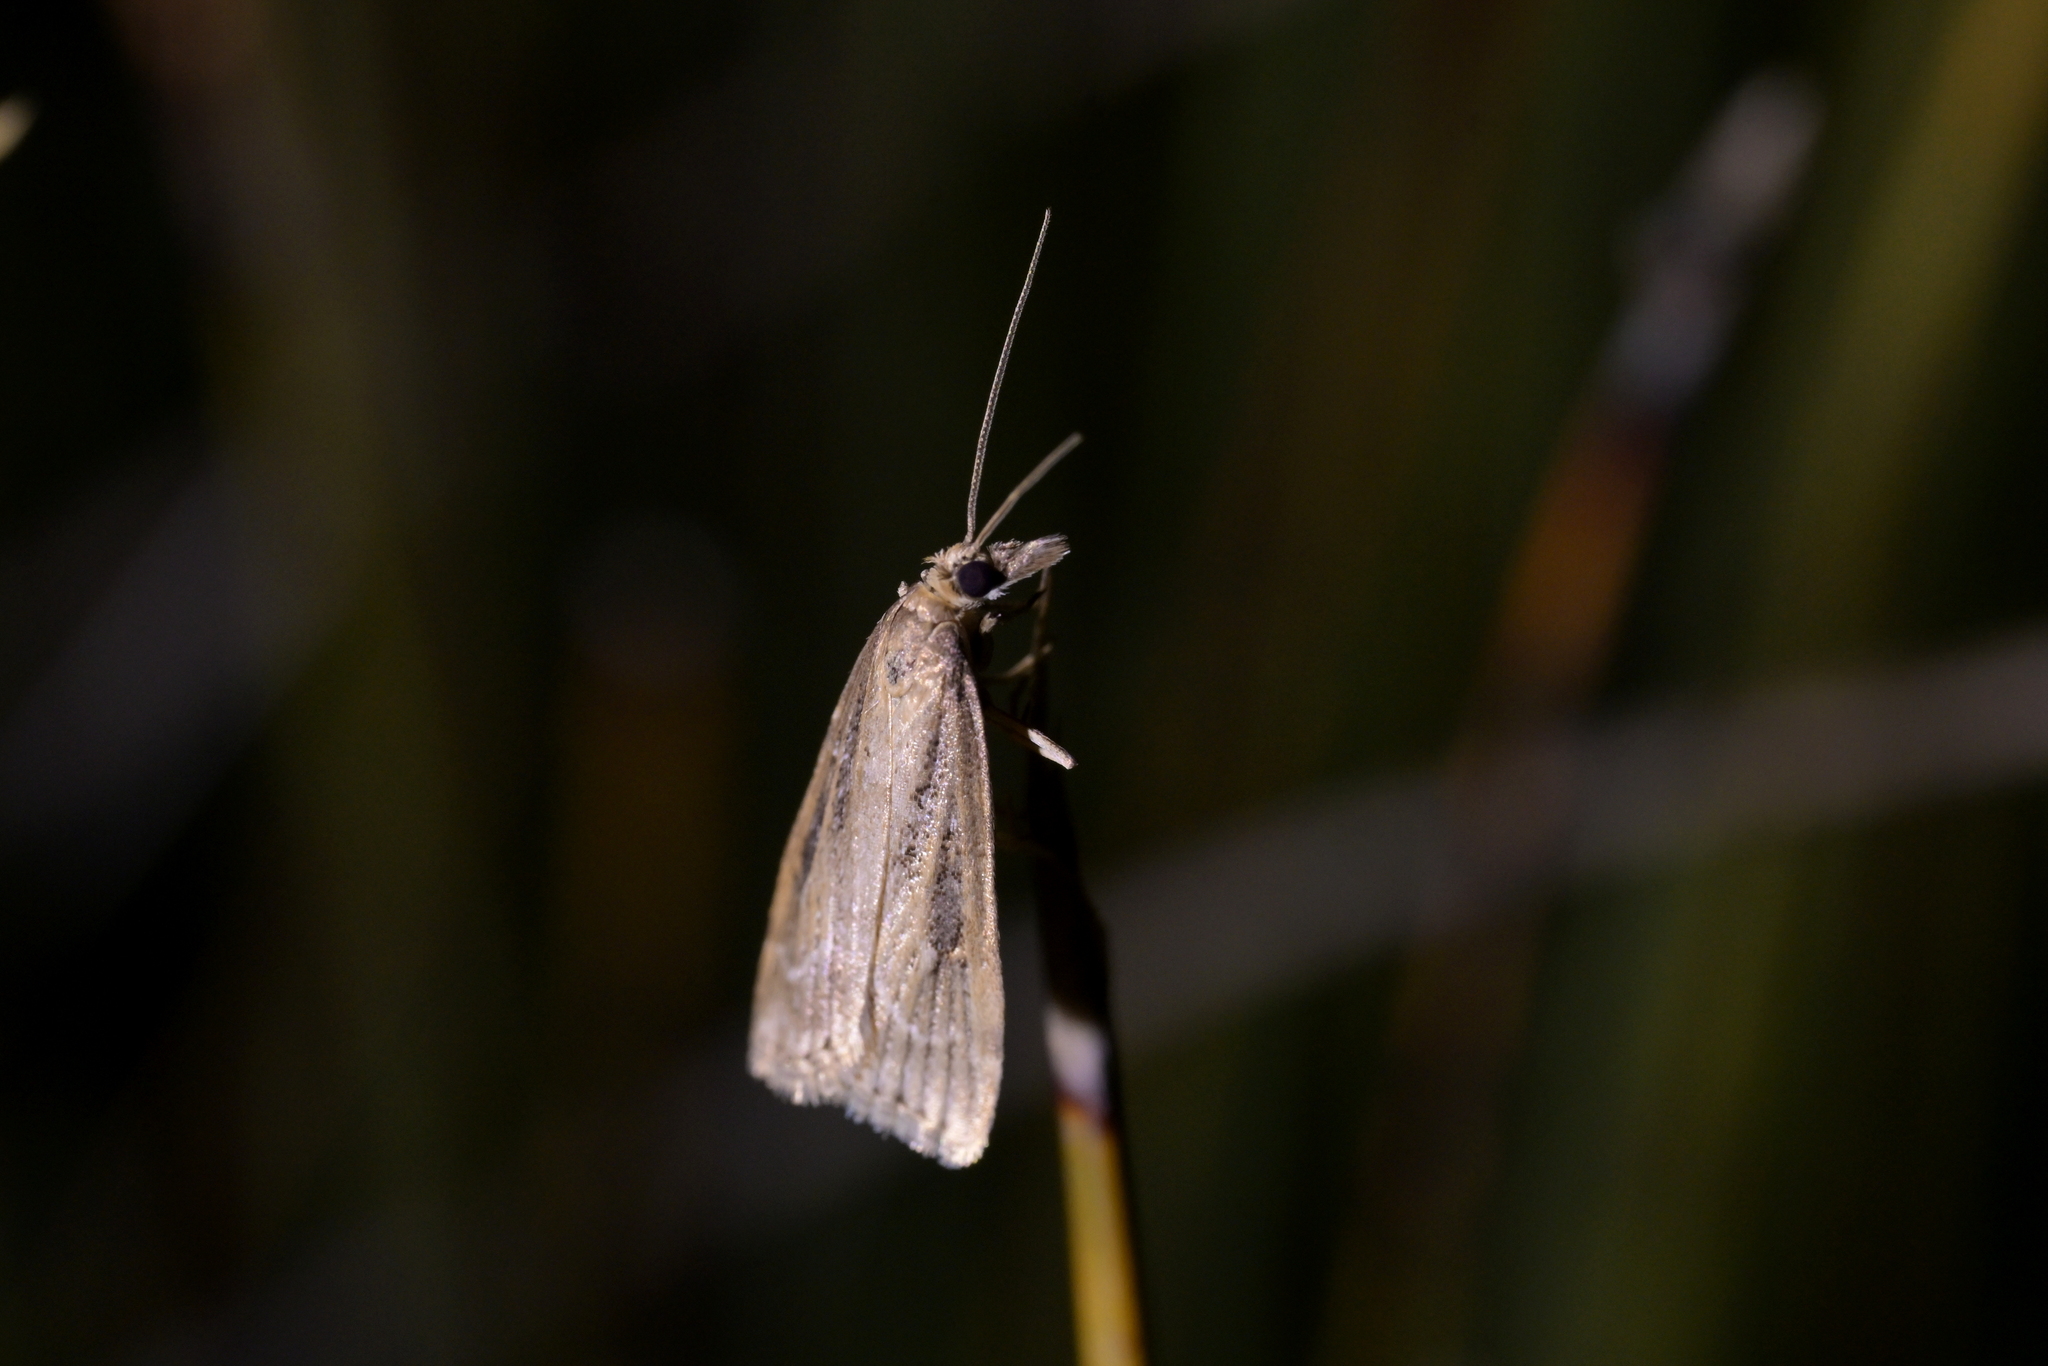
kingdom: Animalia
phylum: Arthropoda
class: Insecta
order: Lepidoptera
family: Crambidae
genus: Eudonia
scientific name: Eudonia octophora
